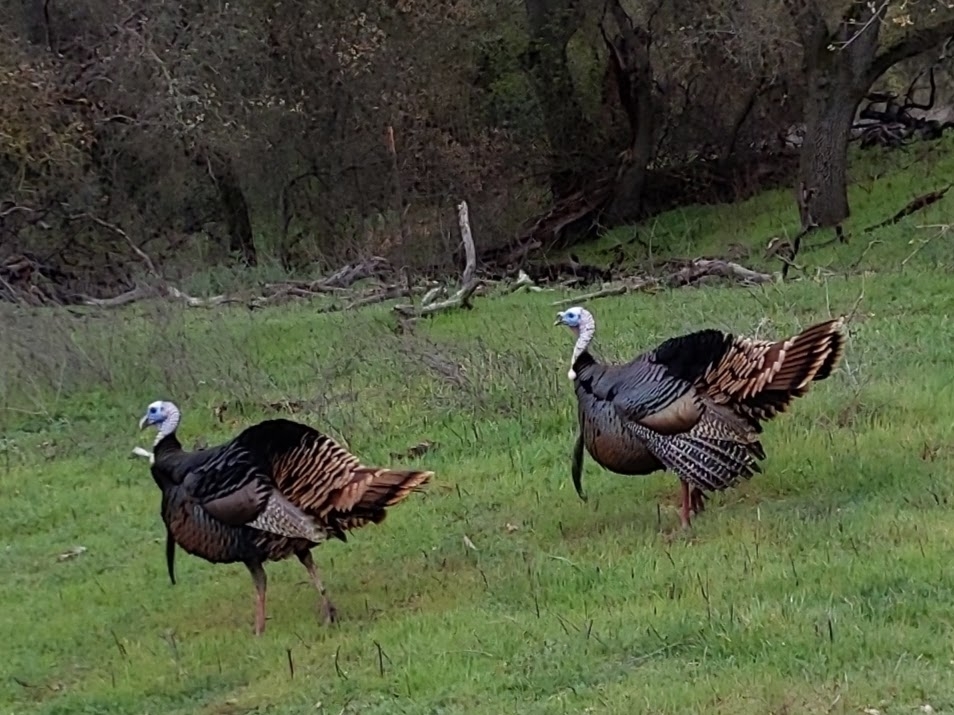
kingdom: Animalia
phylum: Chordata
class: Aves
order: Galliformes
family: Phasianidae
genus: Meleagris
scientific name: Meleagris gallopavo
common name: Wild turkey
